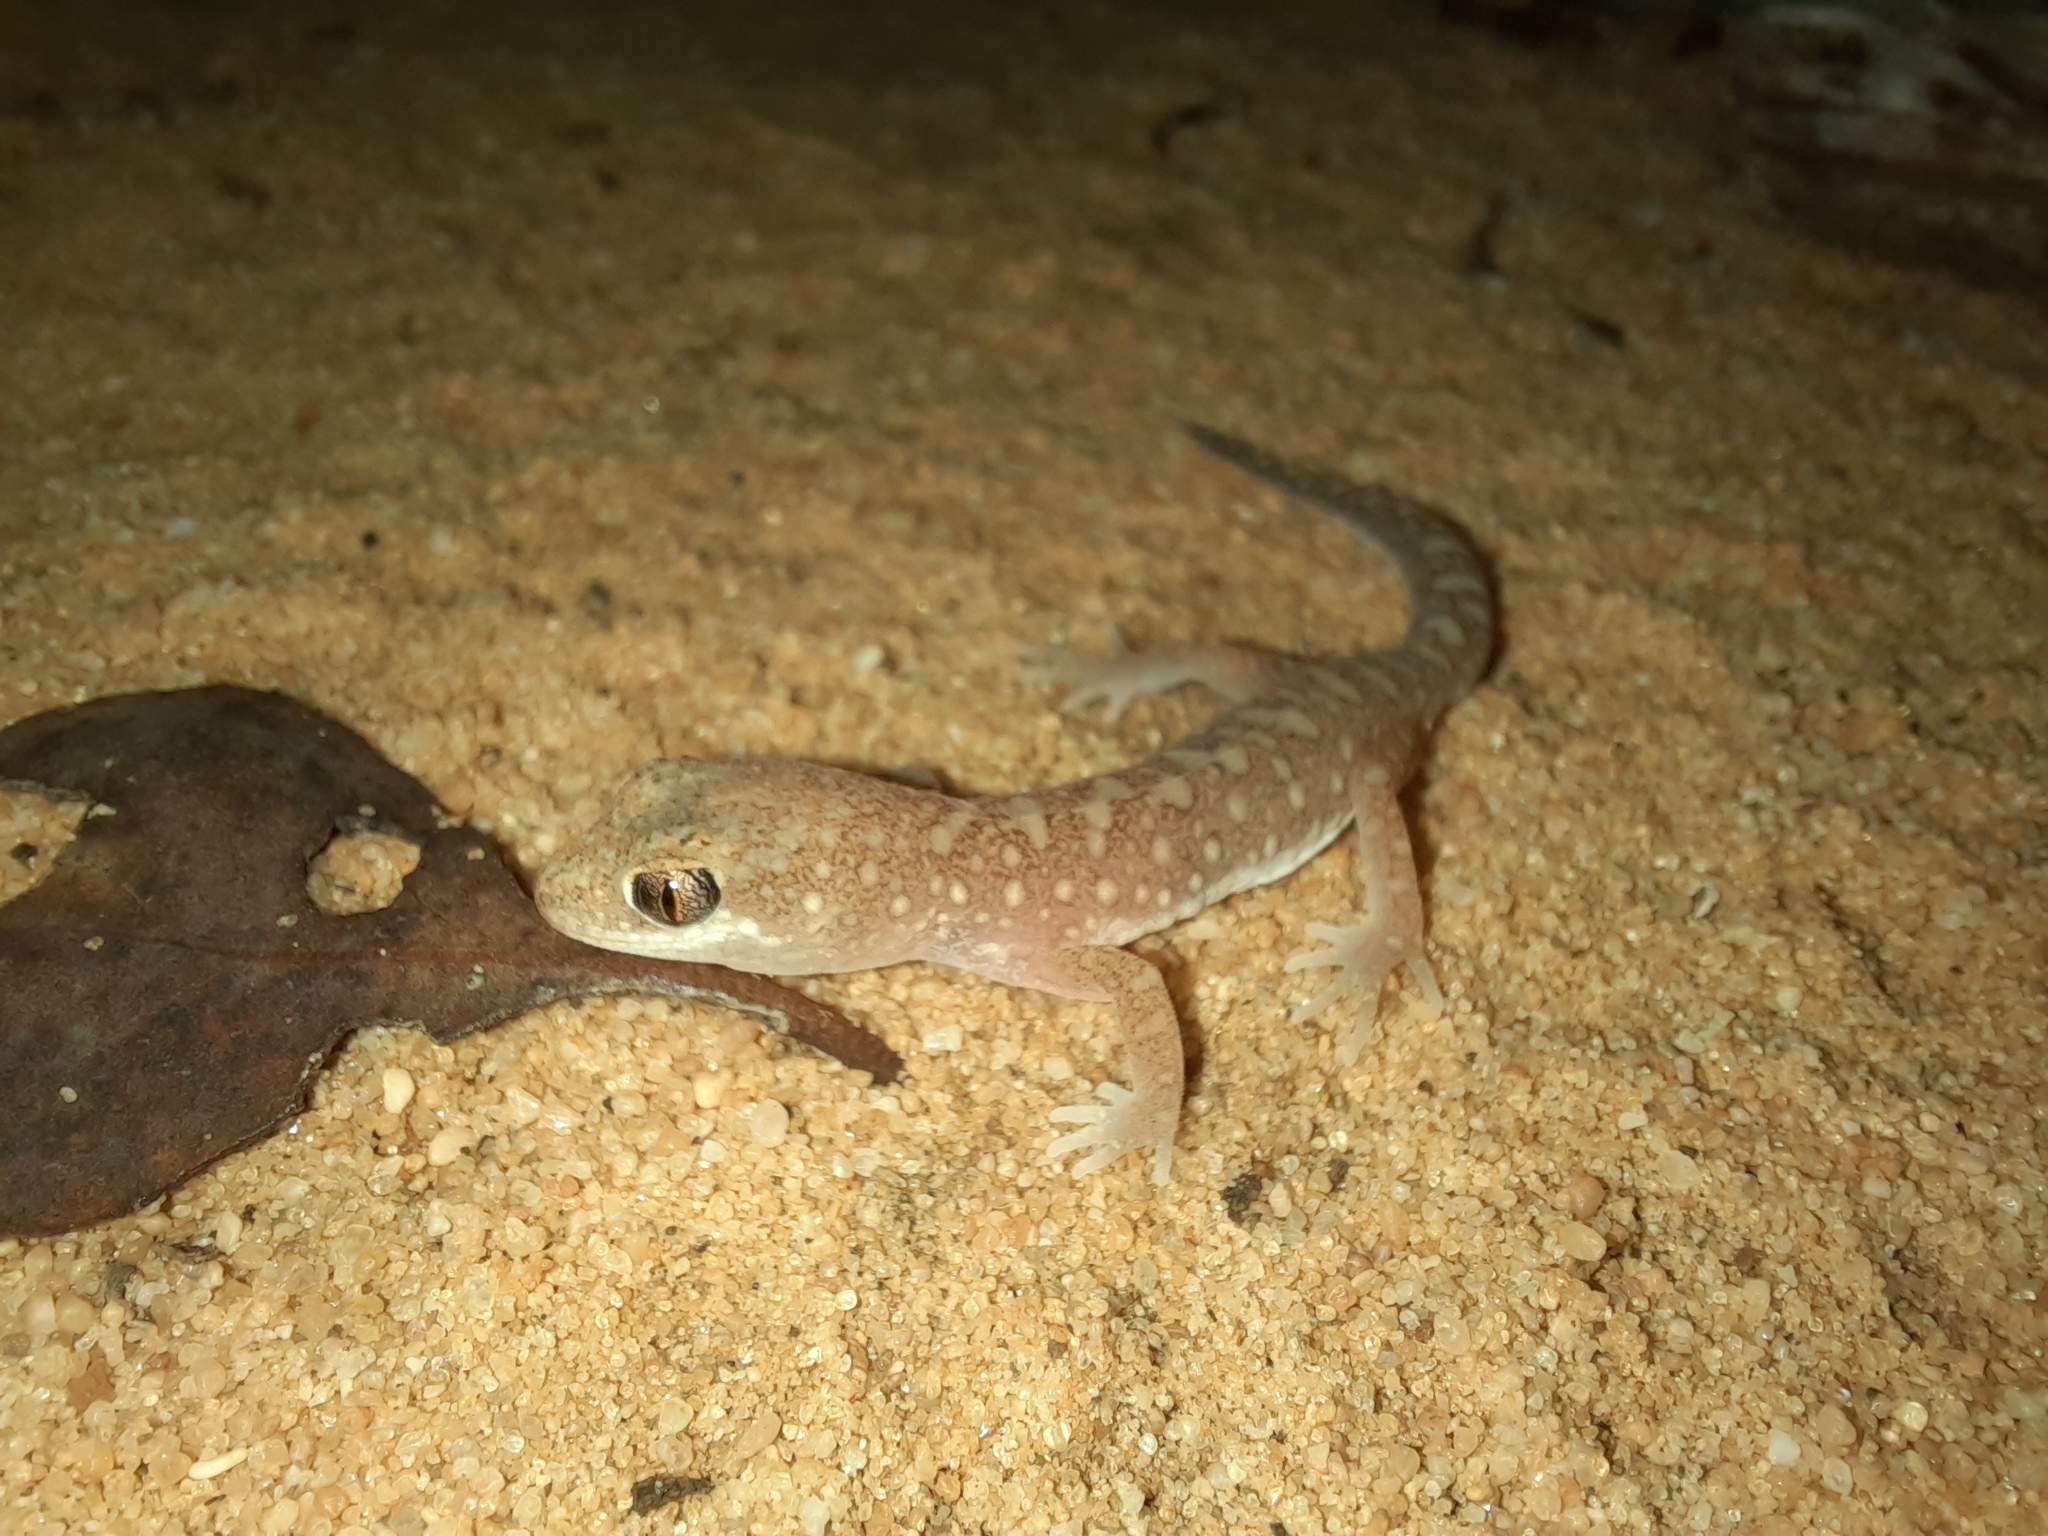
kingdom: Animalia
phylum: Chordata
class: Squamata
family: Diplodactylidae
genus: Lucasium
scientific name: Lucasium damaeum
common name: Beaded gecko
